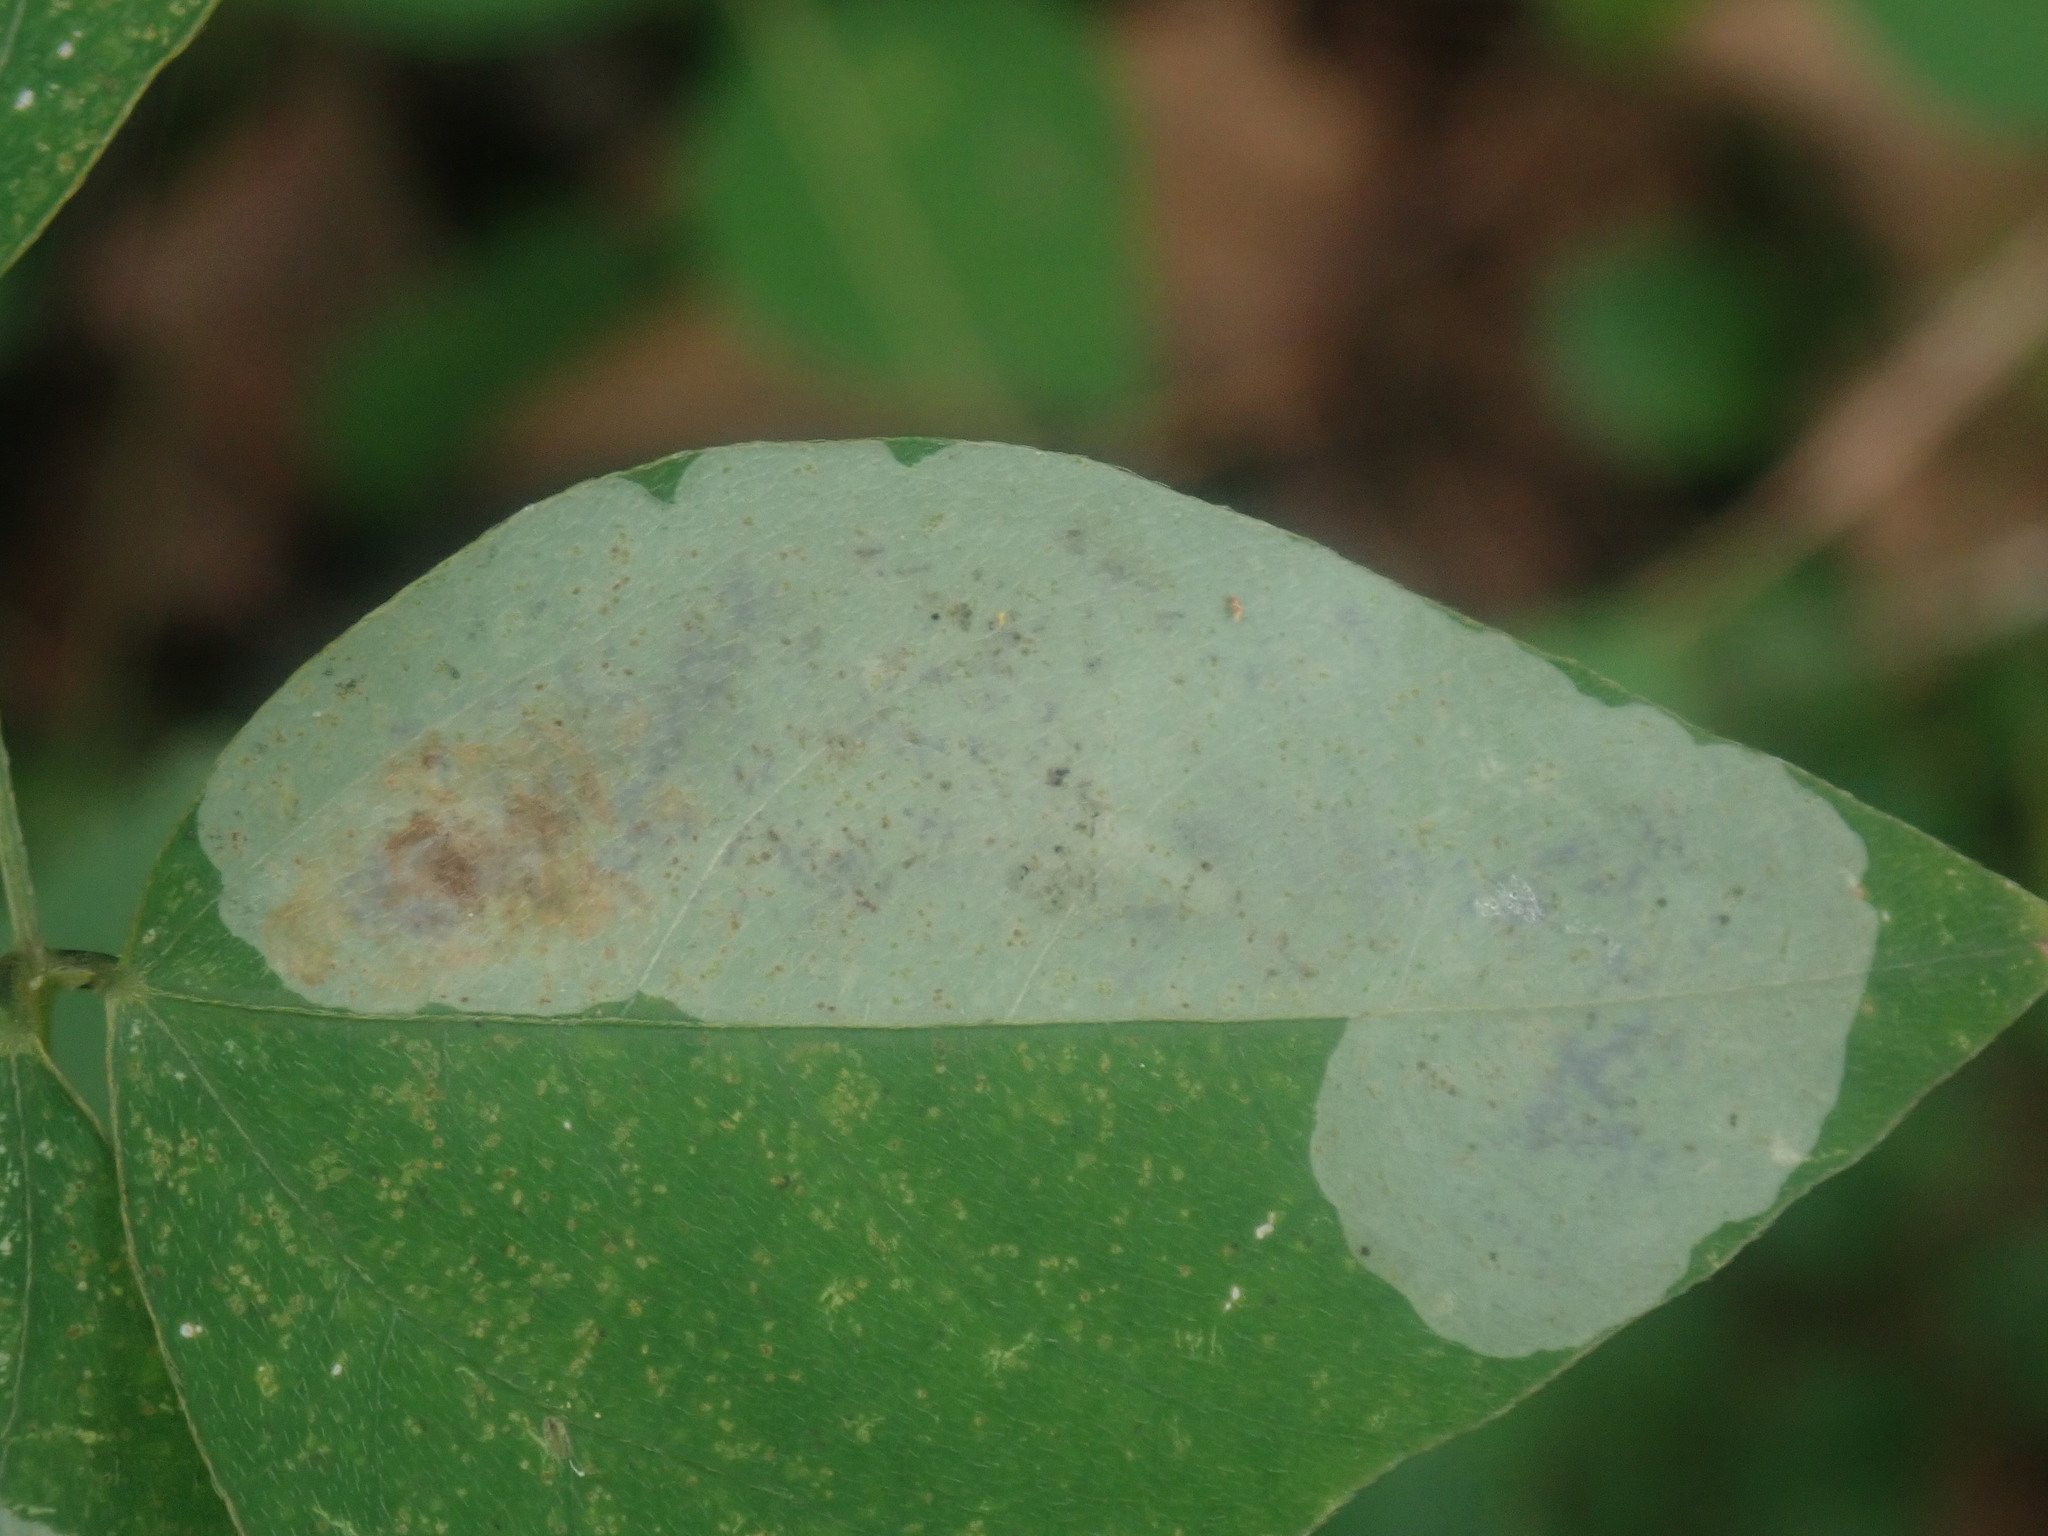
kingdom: Animalia
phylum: Arthropoda
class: Insecta
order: Lepidoptera
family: Gracillariidae
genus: Leucanthiza
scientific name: Leucanthiza amphicarpeaefoliella
